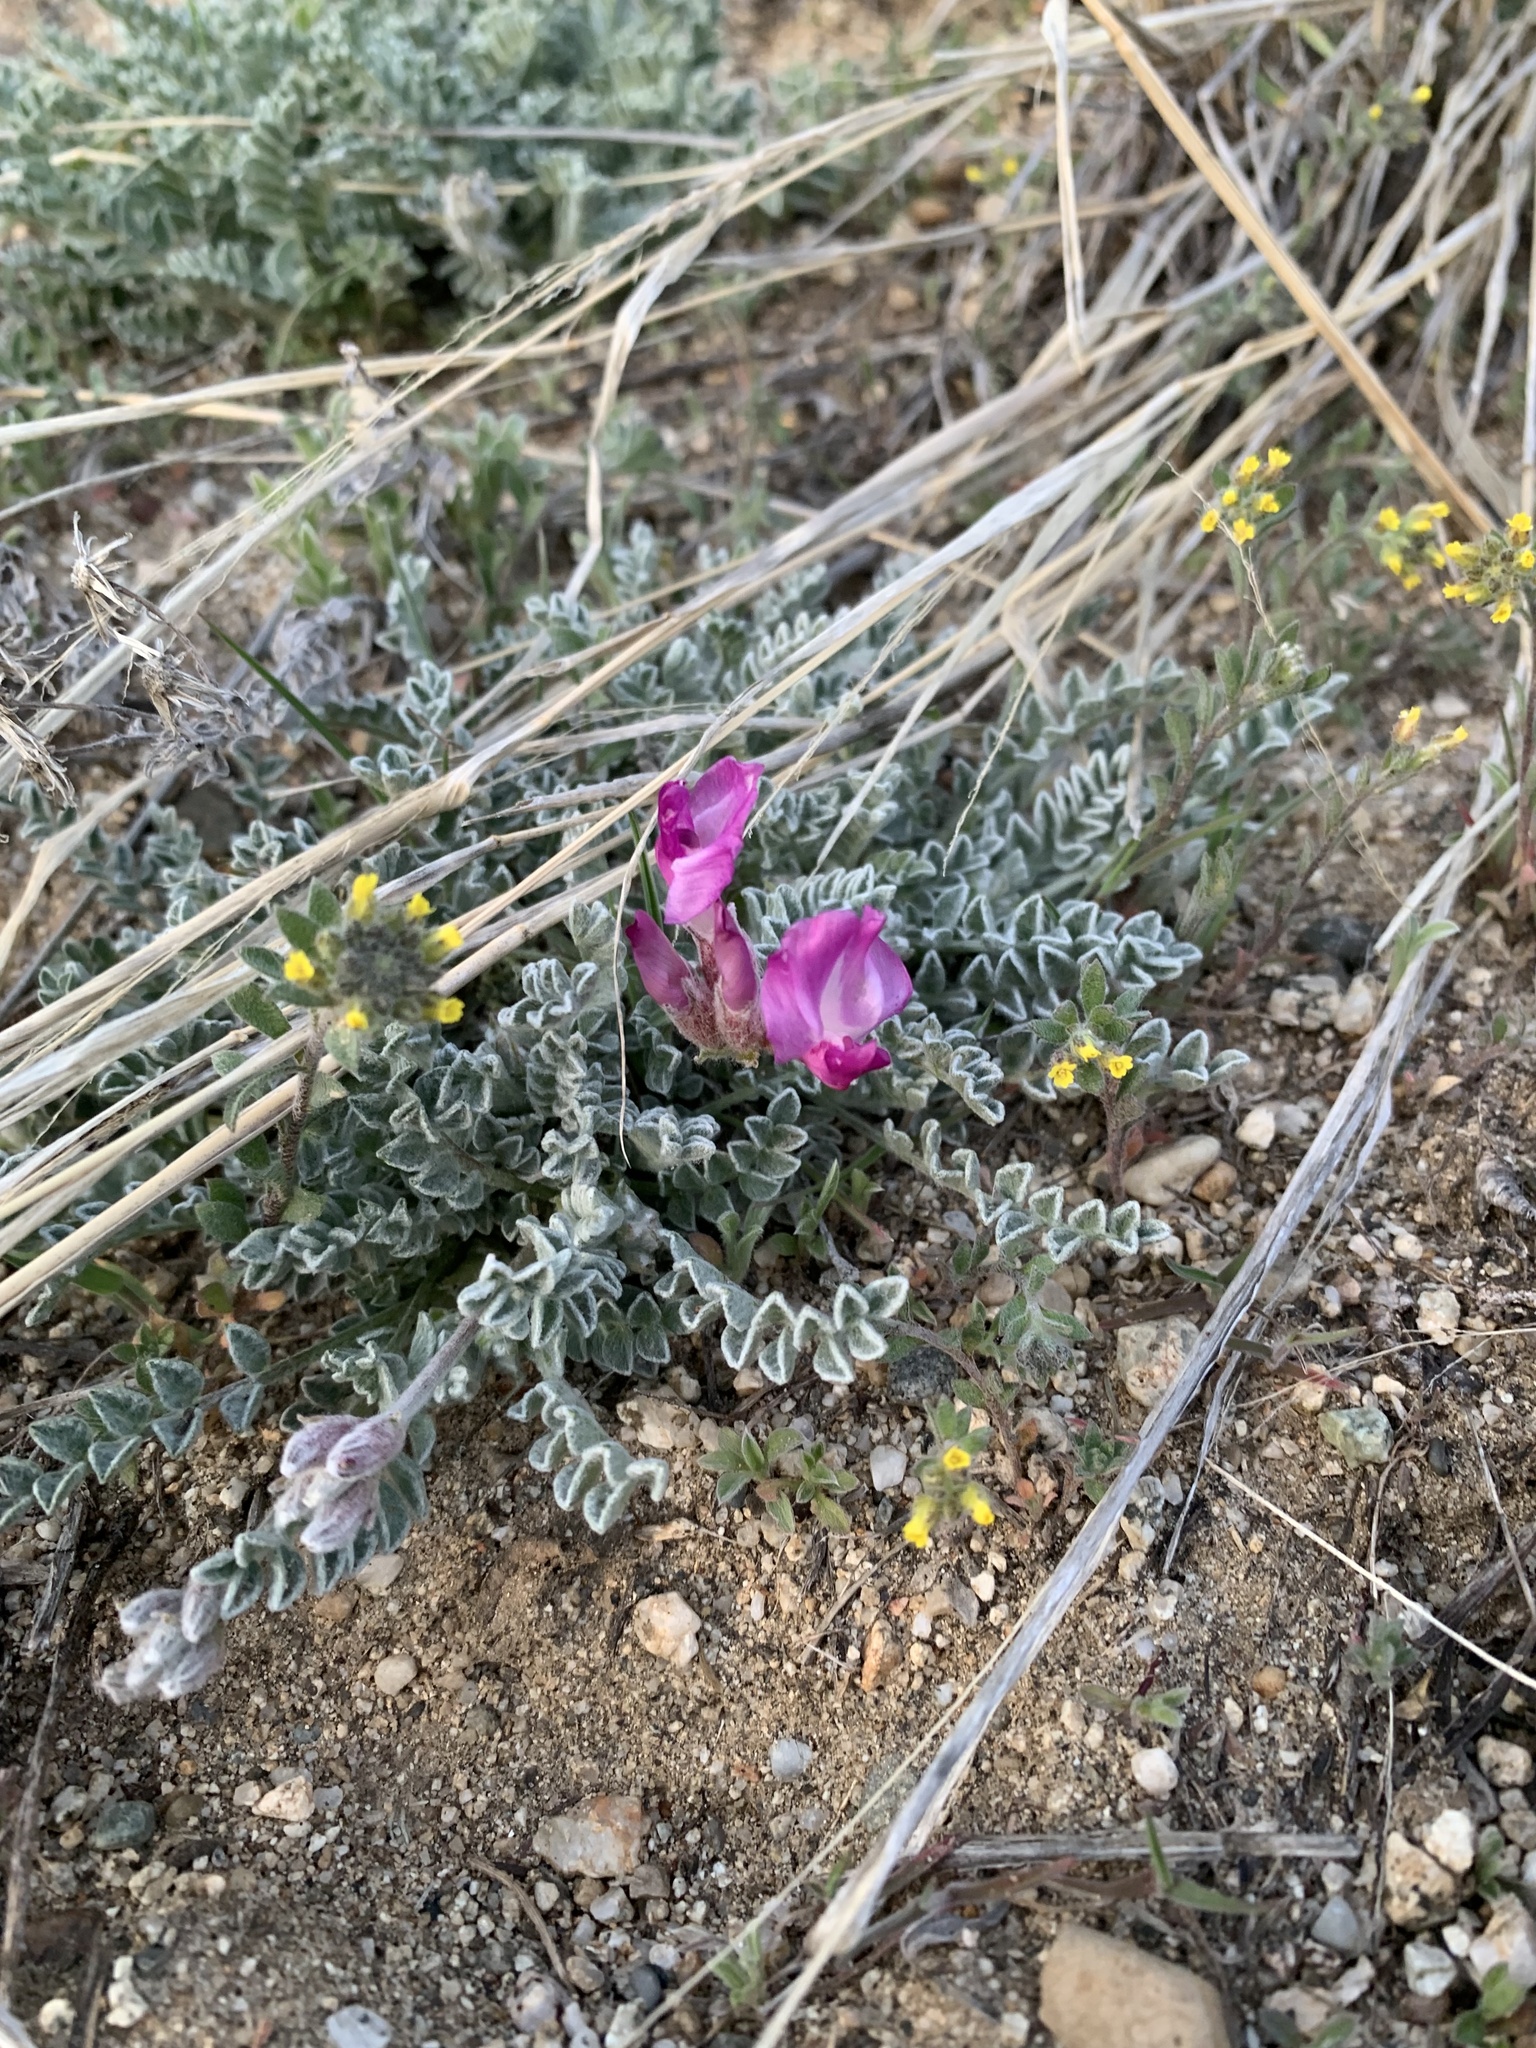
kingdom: Plantae
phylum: Tracheophyta
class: Magnoliopsida
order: Fabales
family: Fabaceae
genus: Astragalus
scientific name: Astragalus utahensis
